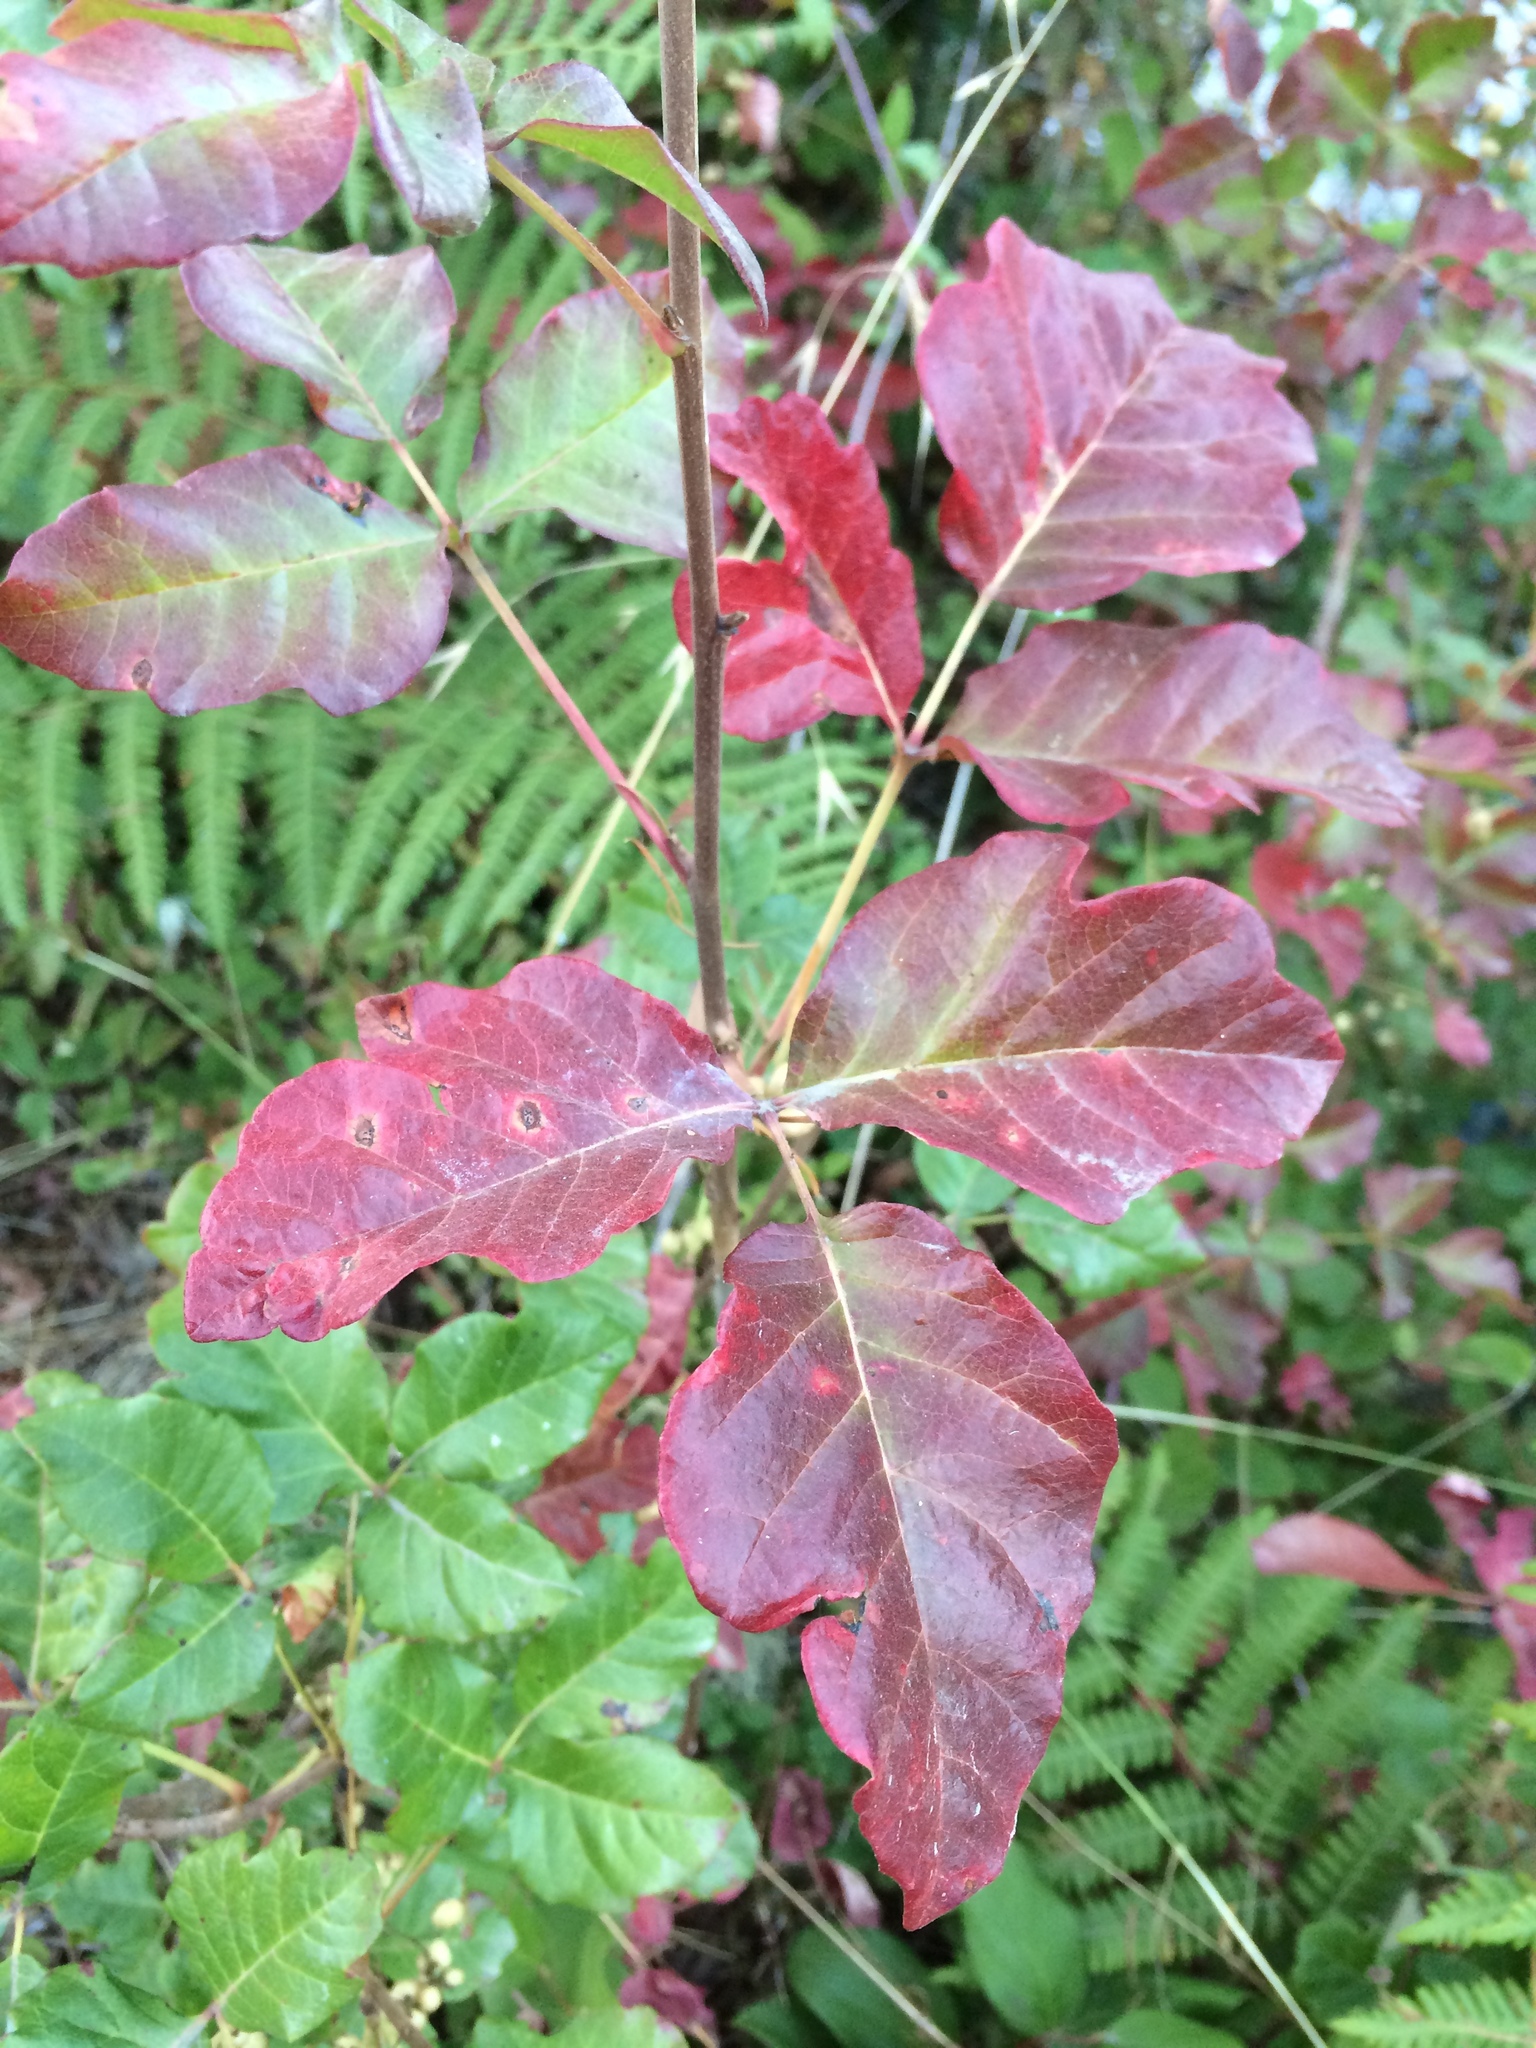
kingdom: Plantae
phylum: Tracheophyta
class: Magnoliopsida
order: Sapindales
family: Anacardiaceae
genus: Toxicodendron
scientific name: Toxicodendron diversilobum
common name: Pacific poison-oak
